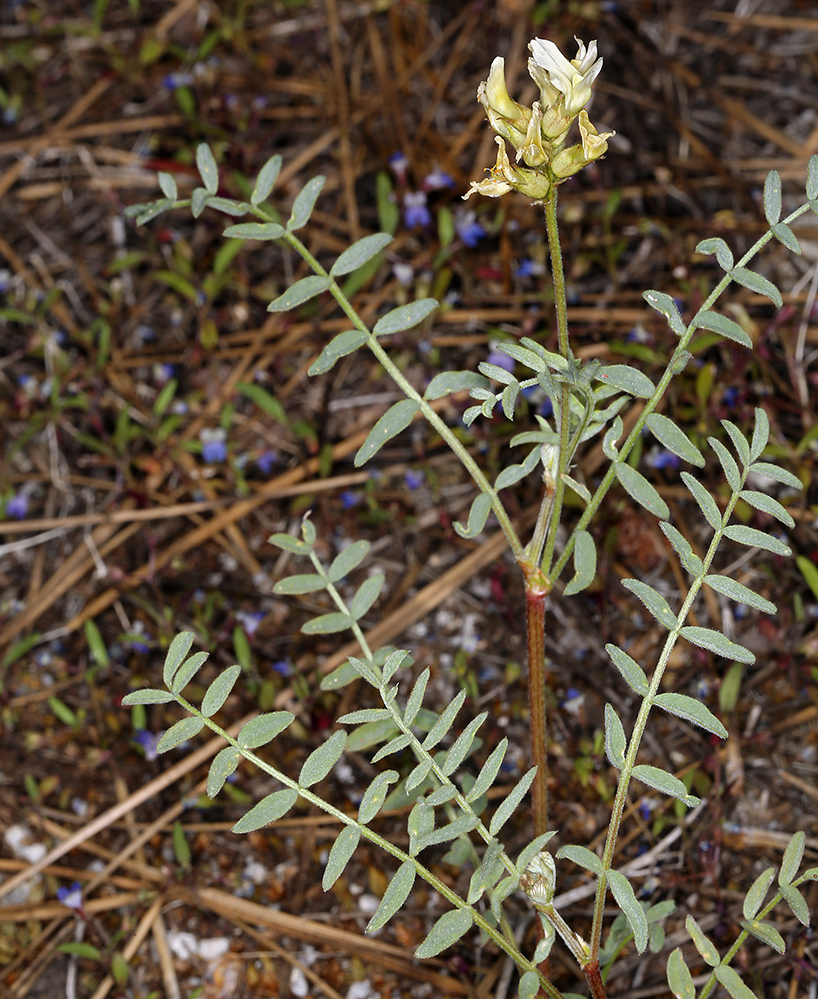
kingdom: Plantae
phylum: Tracheophyta
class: Magnoliopsida
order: Fabales
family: Fabaceae
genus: Astragalus
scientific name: Astragalus bolanderi
